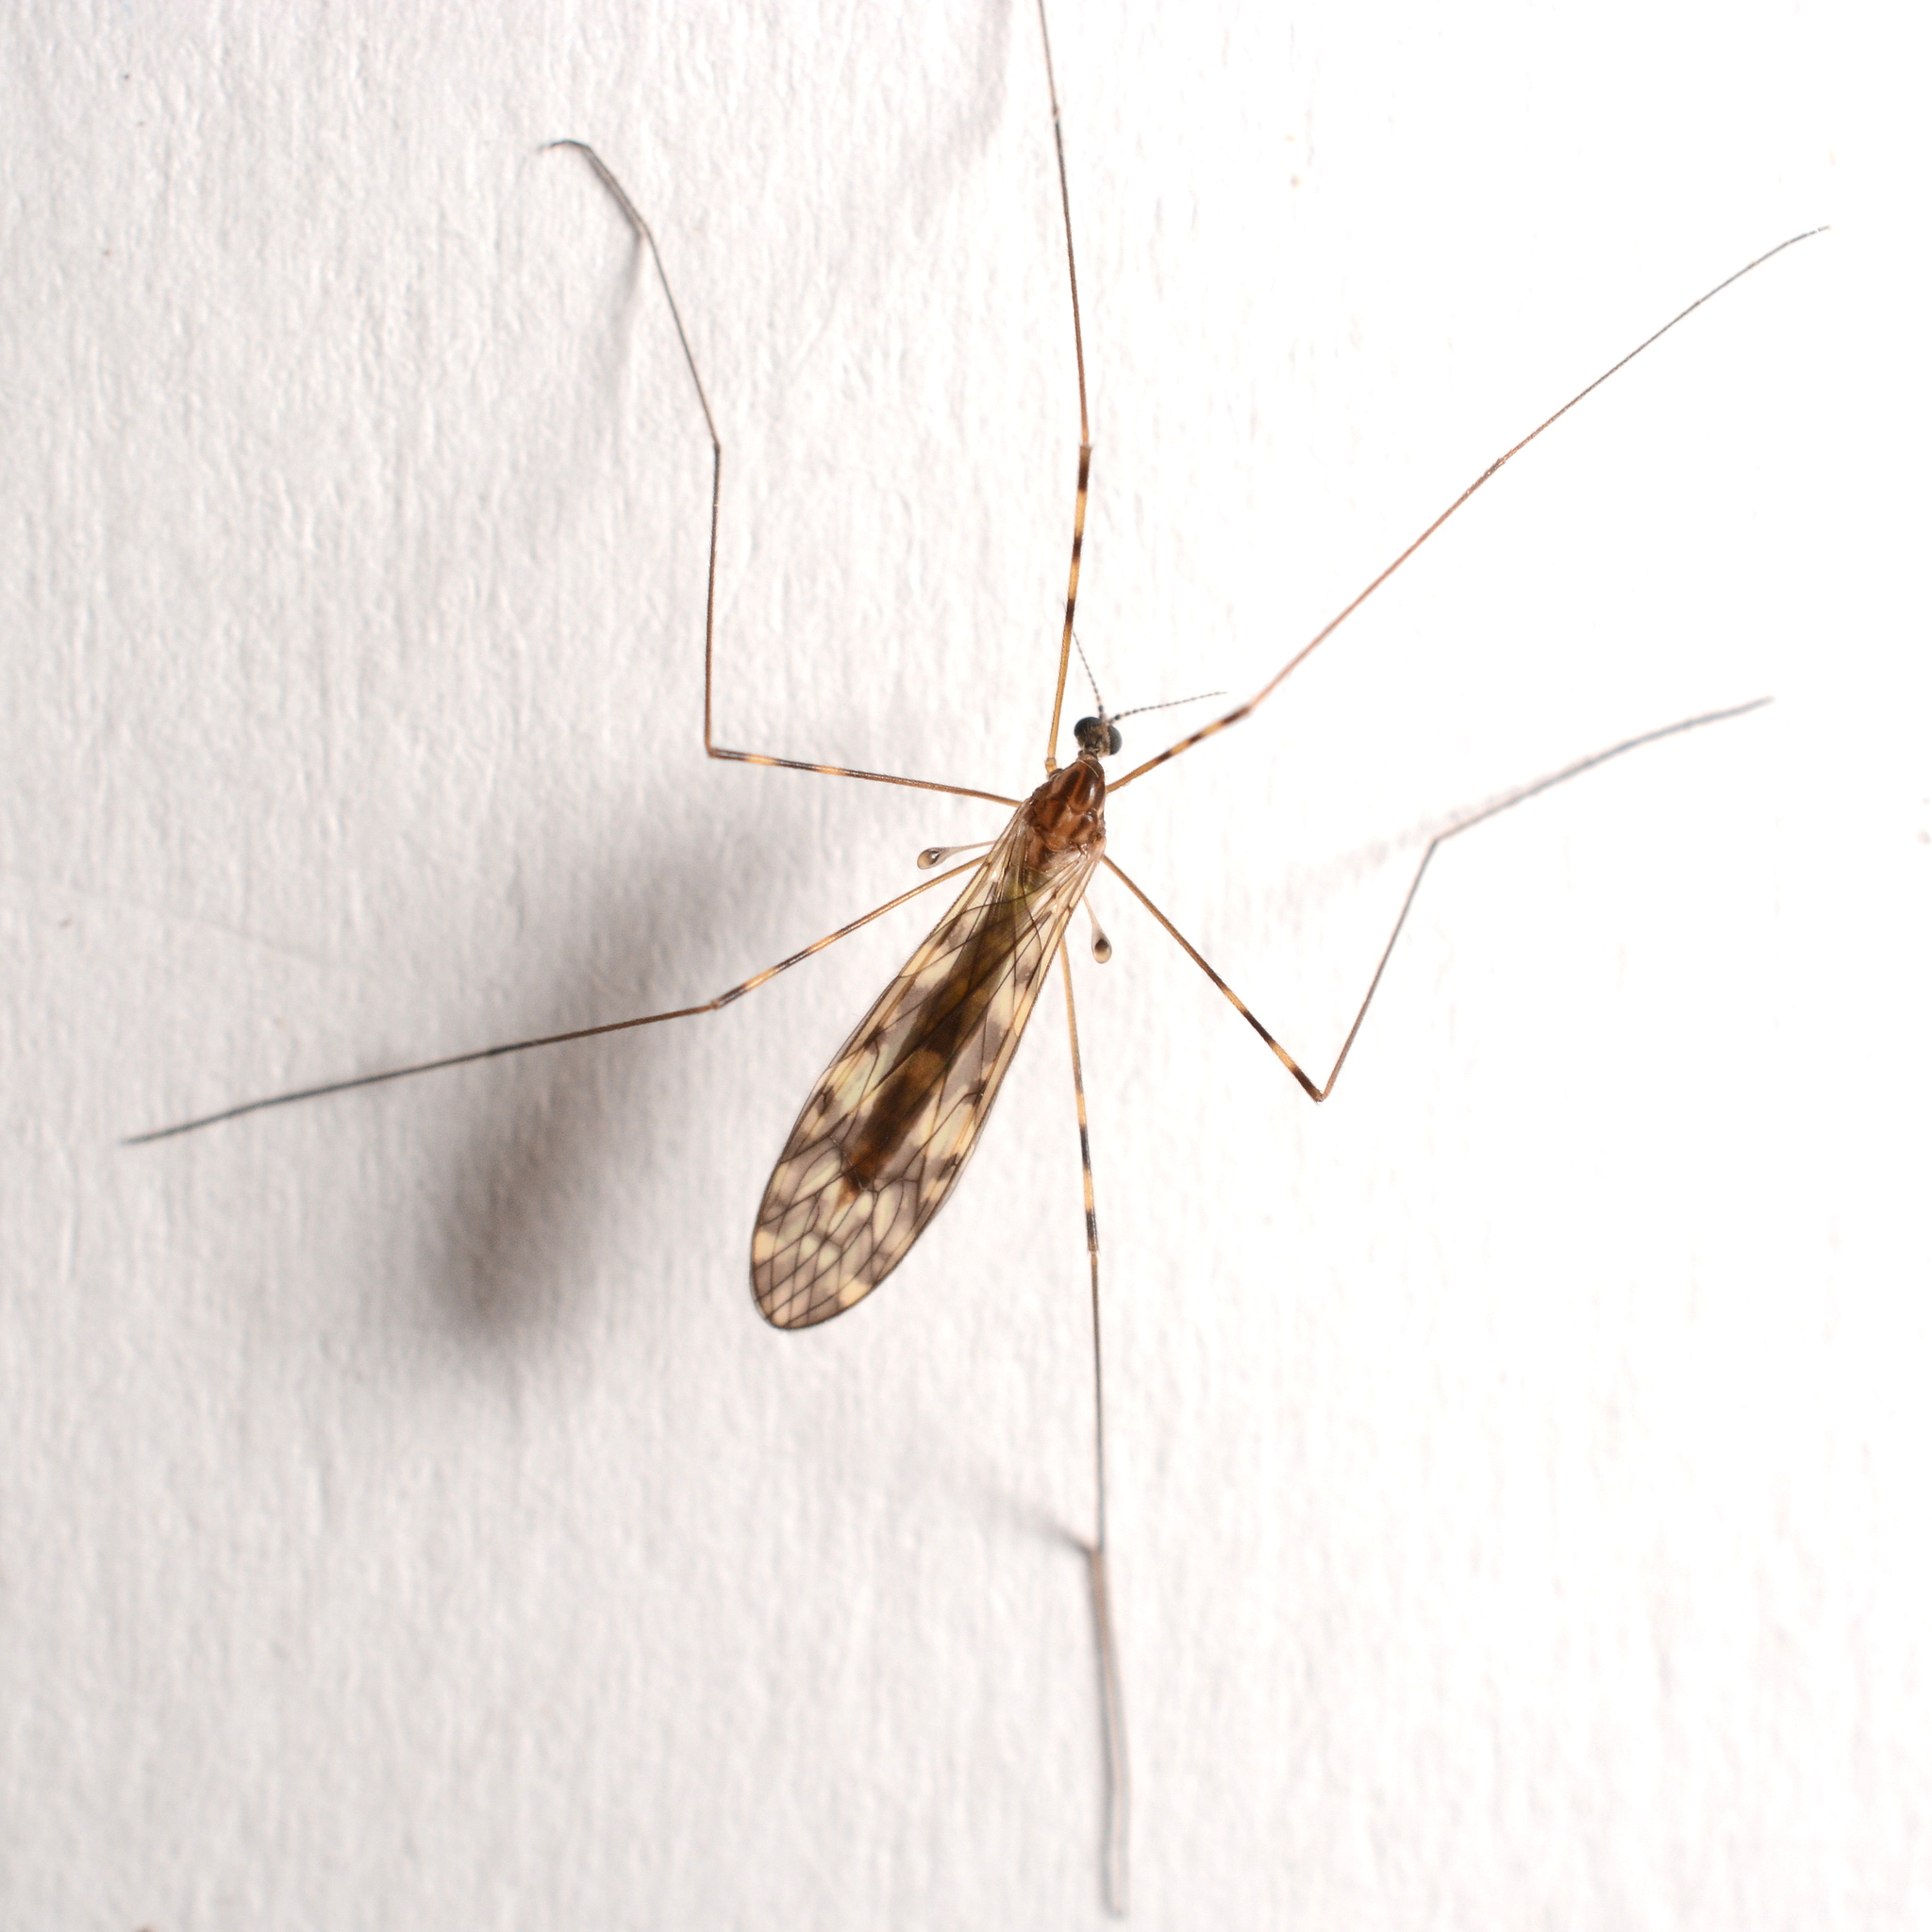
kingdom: Animalia
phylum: Arthropoda
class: Insecta
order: Diptera
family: Limoniidae
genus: Limonia
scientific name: Limonia nubeculosa
